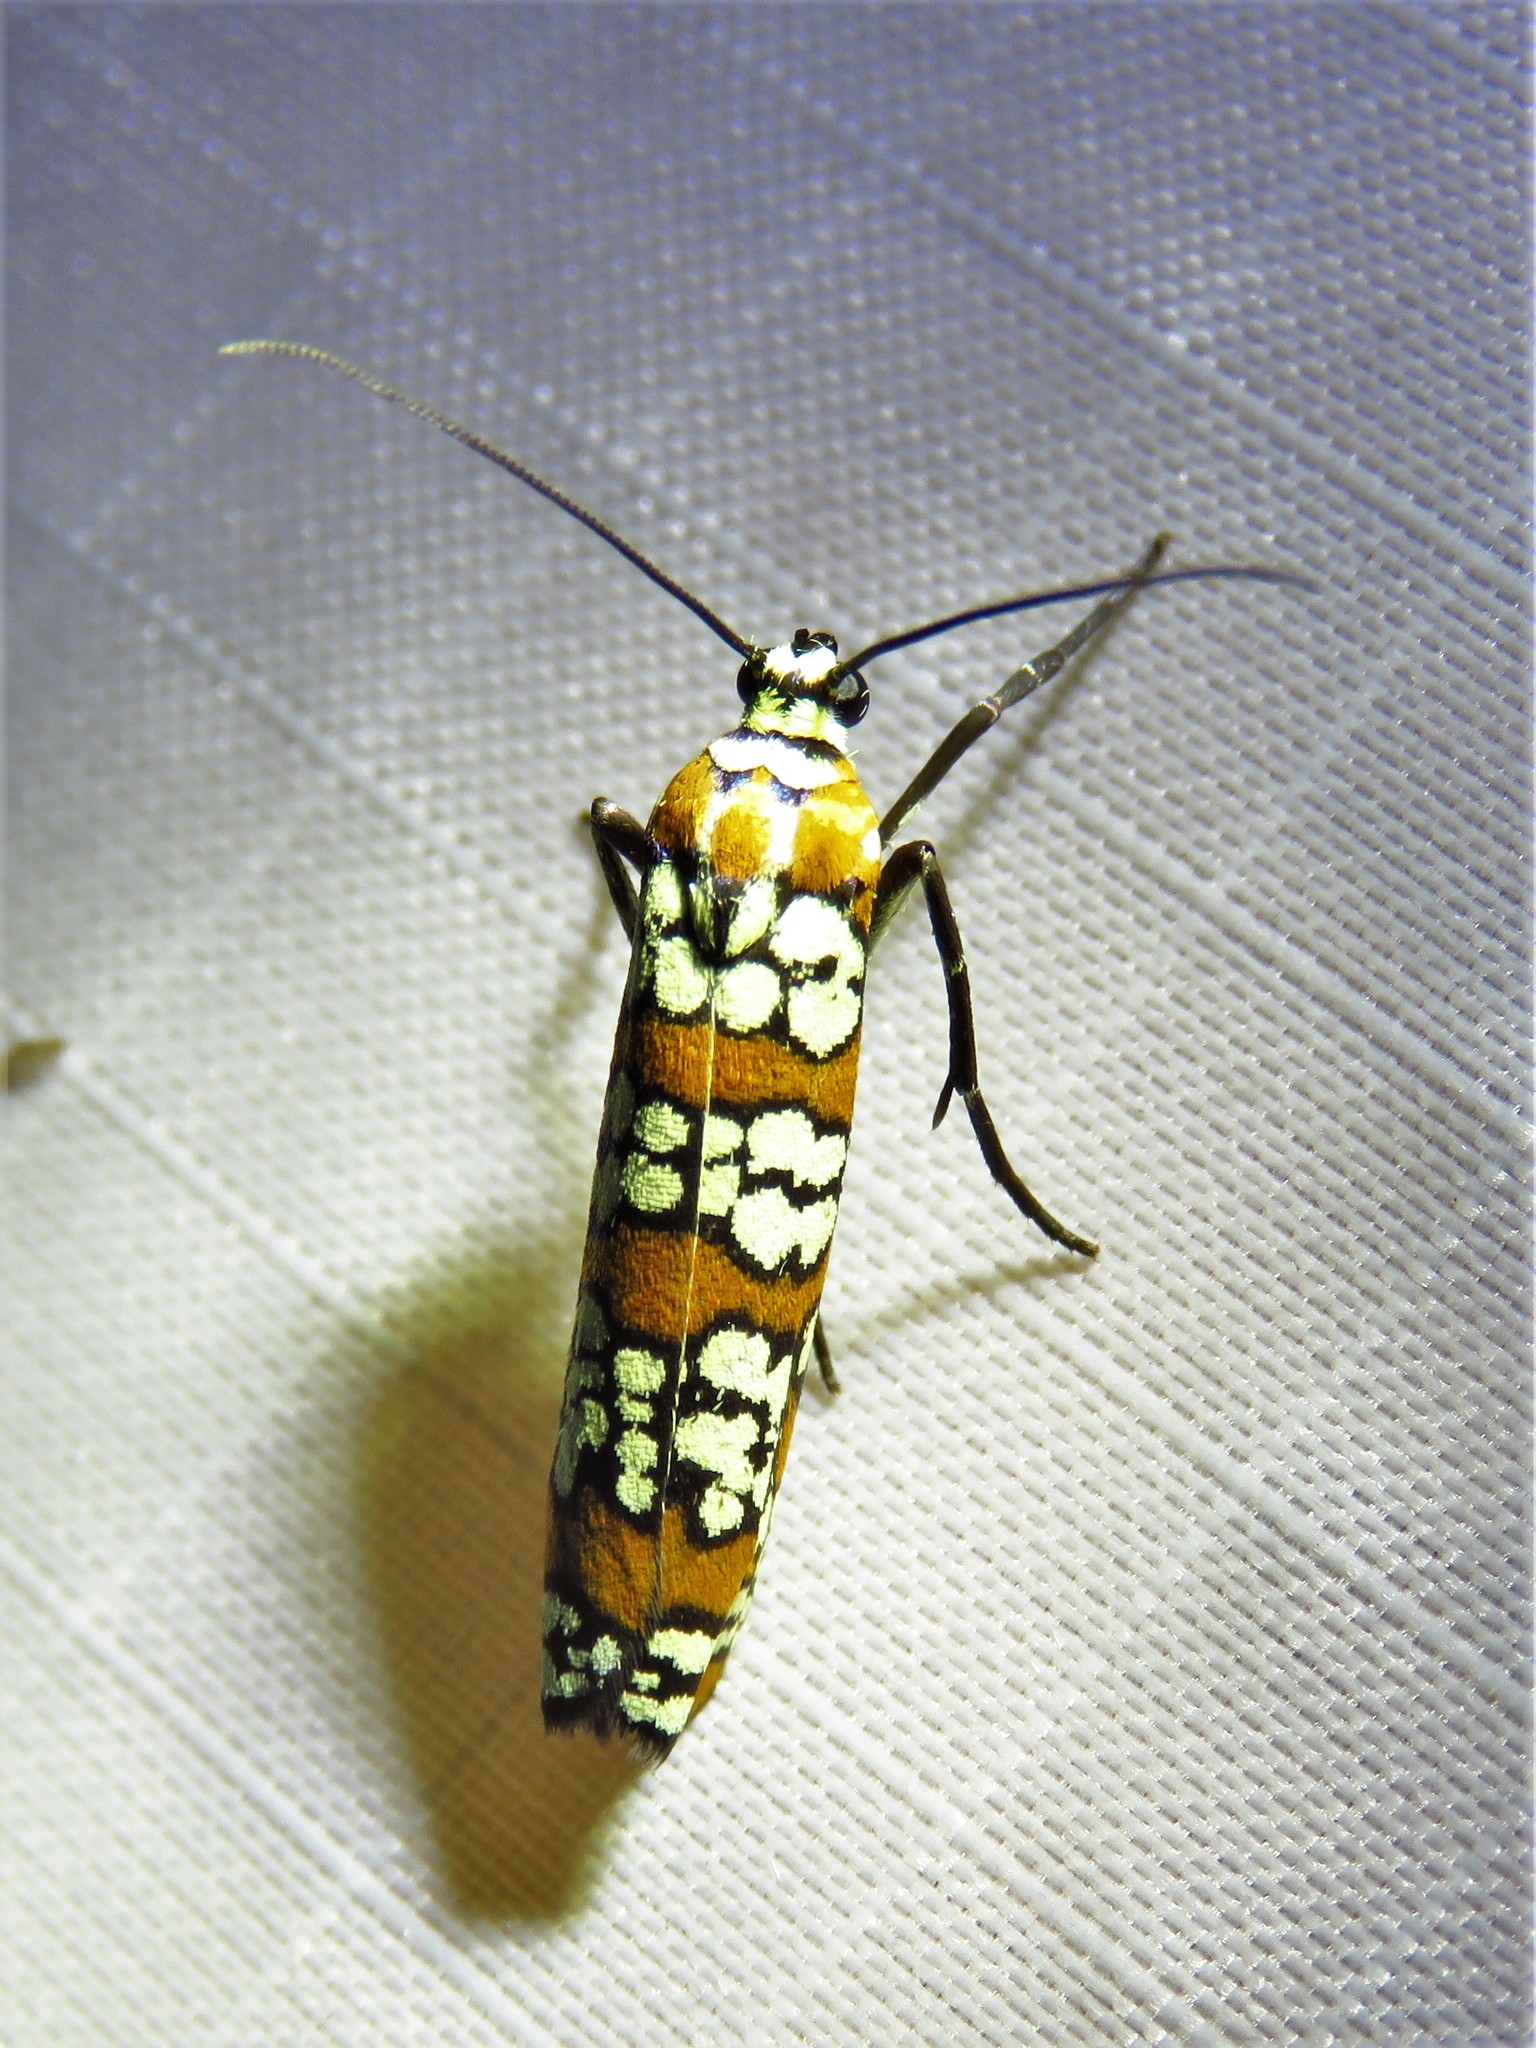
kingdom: Animalia
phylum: Arthropoda
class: Insecta
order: Lepidoptera
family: Attevidae
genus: Atteva
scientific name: Atteva punctella
